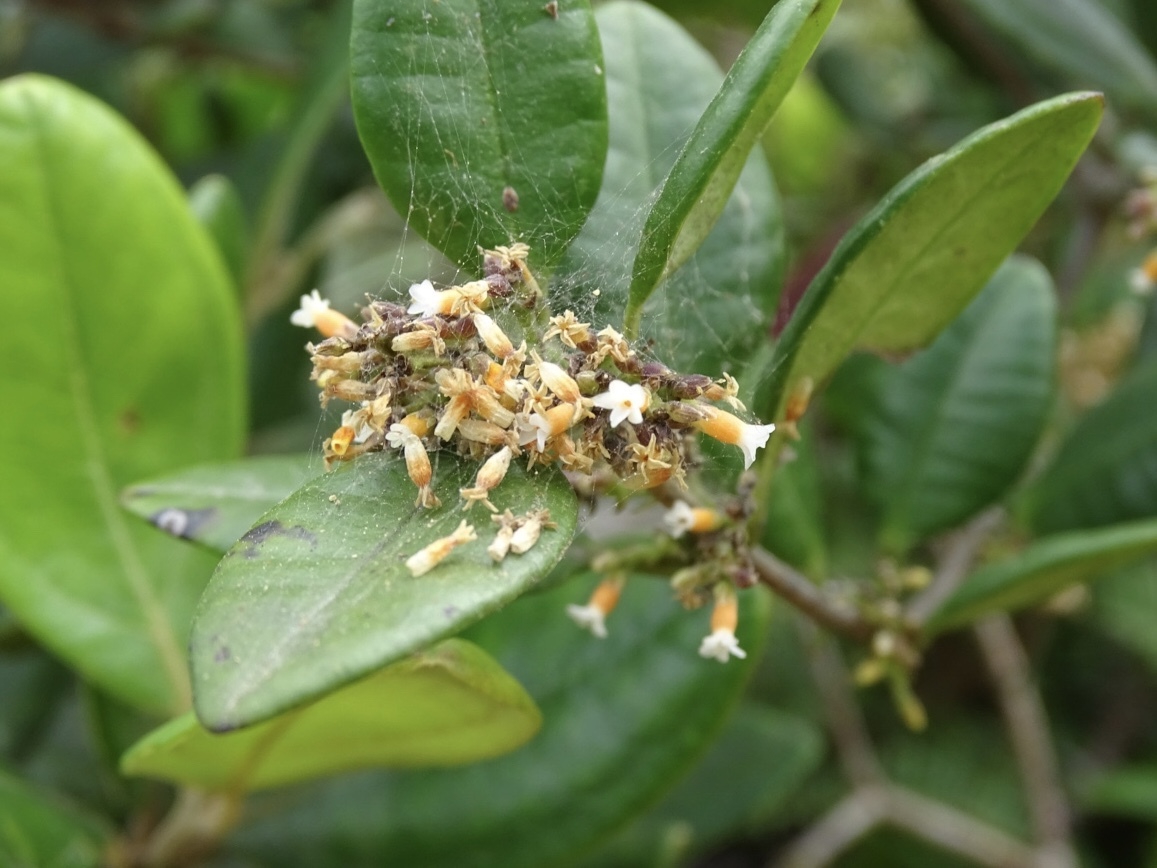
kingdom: Plantae
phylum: Tracheophyta
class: Magnoliopsida
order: Gentianales
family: Apocynaceae
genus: Alyxia
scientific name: Alyxia sinensis
